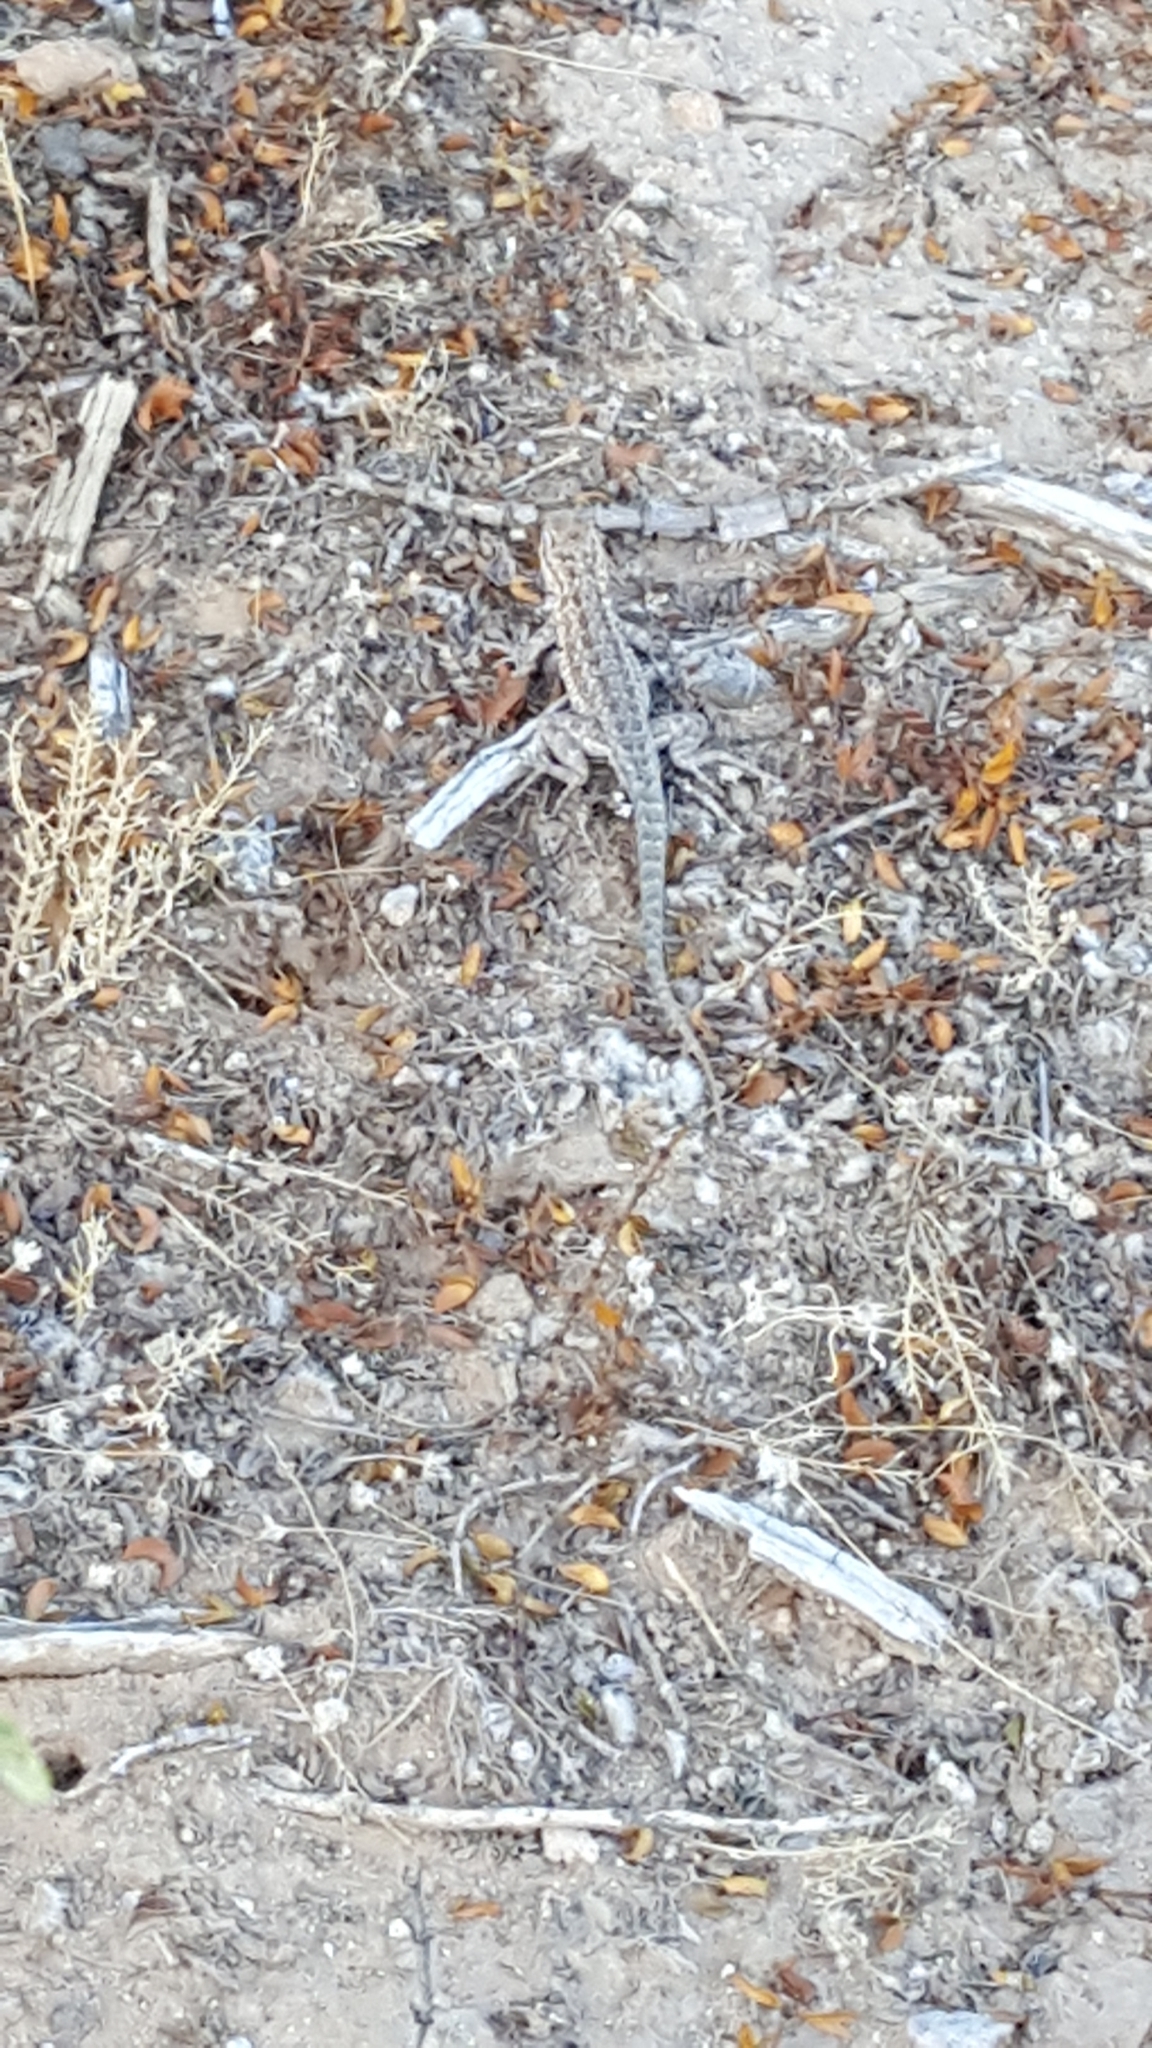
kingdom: Animalia
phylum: Chordata
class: Squamata
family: Phrynosomatidae
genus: Uta
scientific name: Uta stansburiana
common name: Side-blotched lizard
